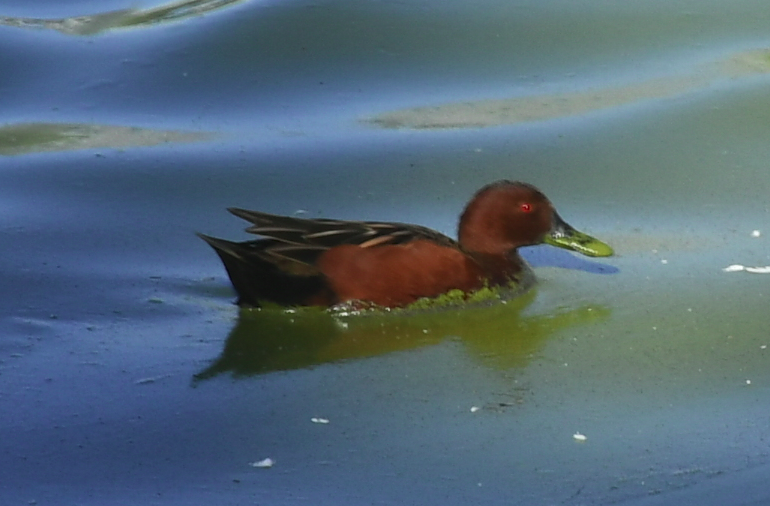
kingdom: Animalia
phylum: Chordata
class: Aves
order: Anseriformes
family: Anatidae
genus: Spatula
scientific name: Spatula cyanoptera
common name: Cinnamon teal
